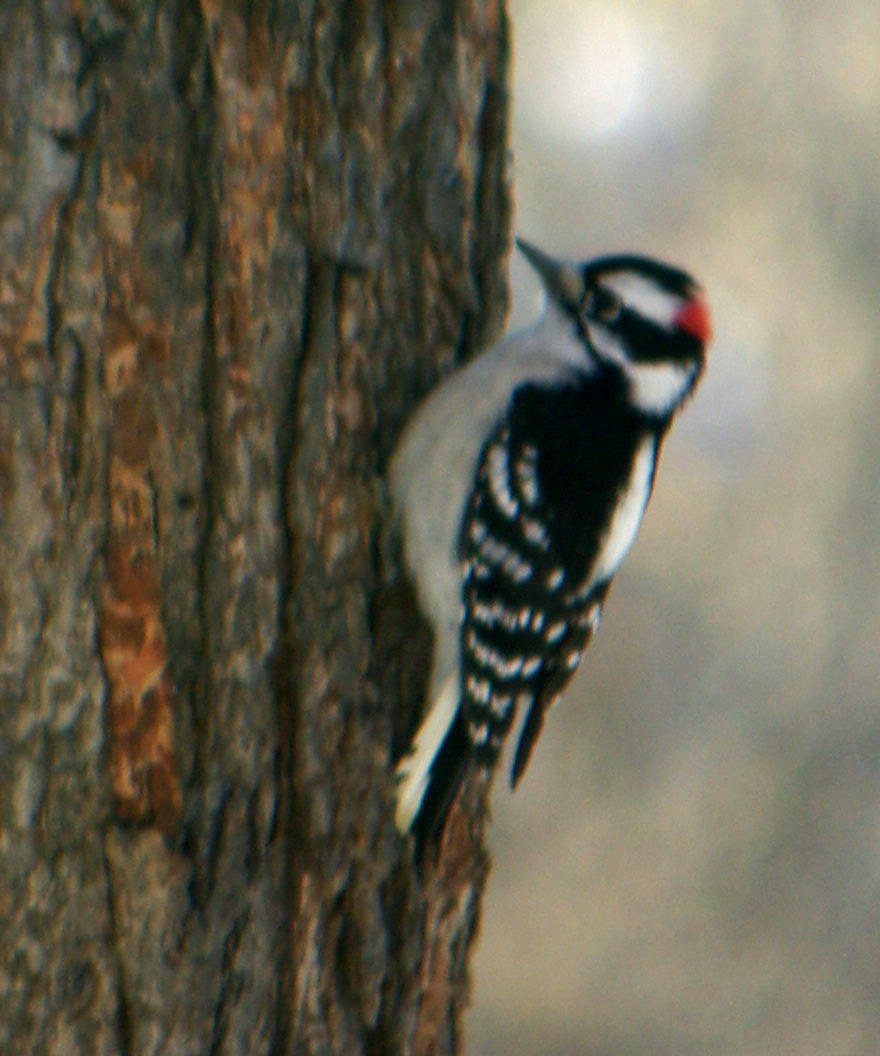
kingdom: Animalia
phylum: Chordata
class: Aves
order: Piciformes
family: Picidae
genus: Dryobates
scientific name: Dryobates pubescens
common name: Downy woodpecker
